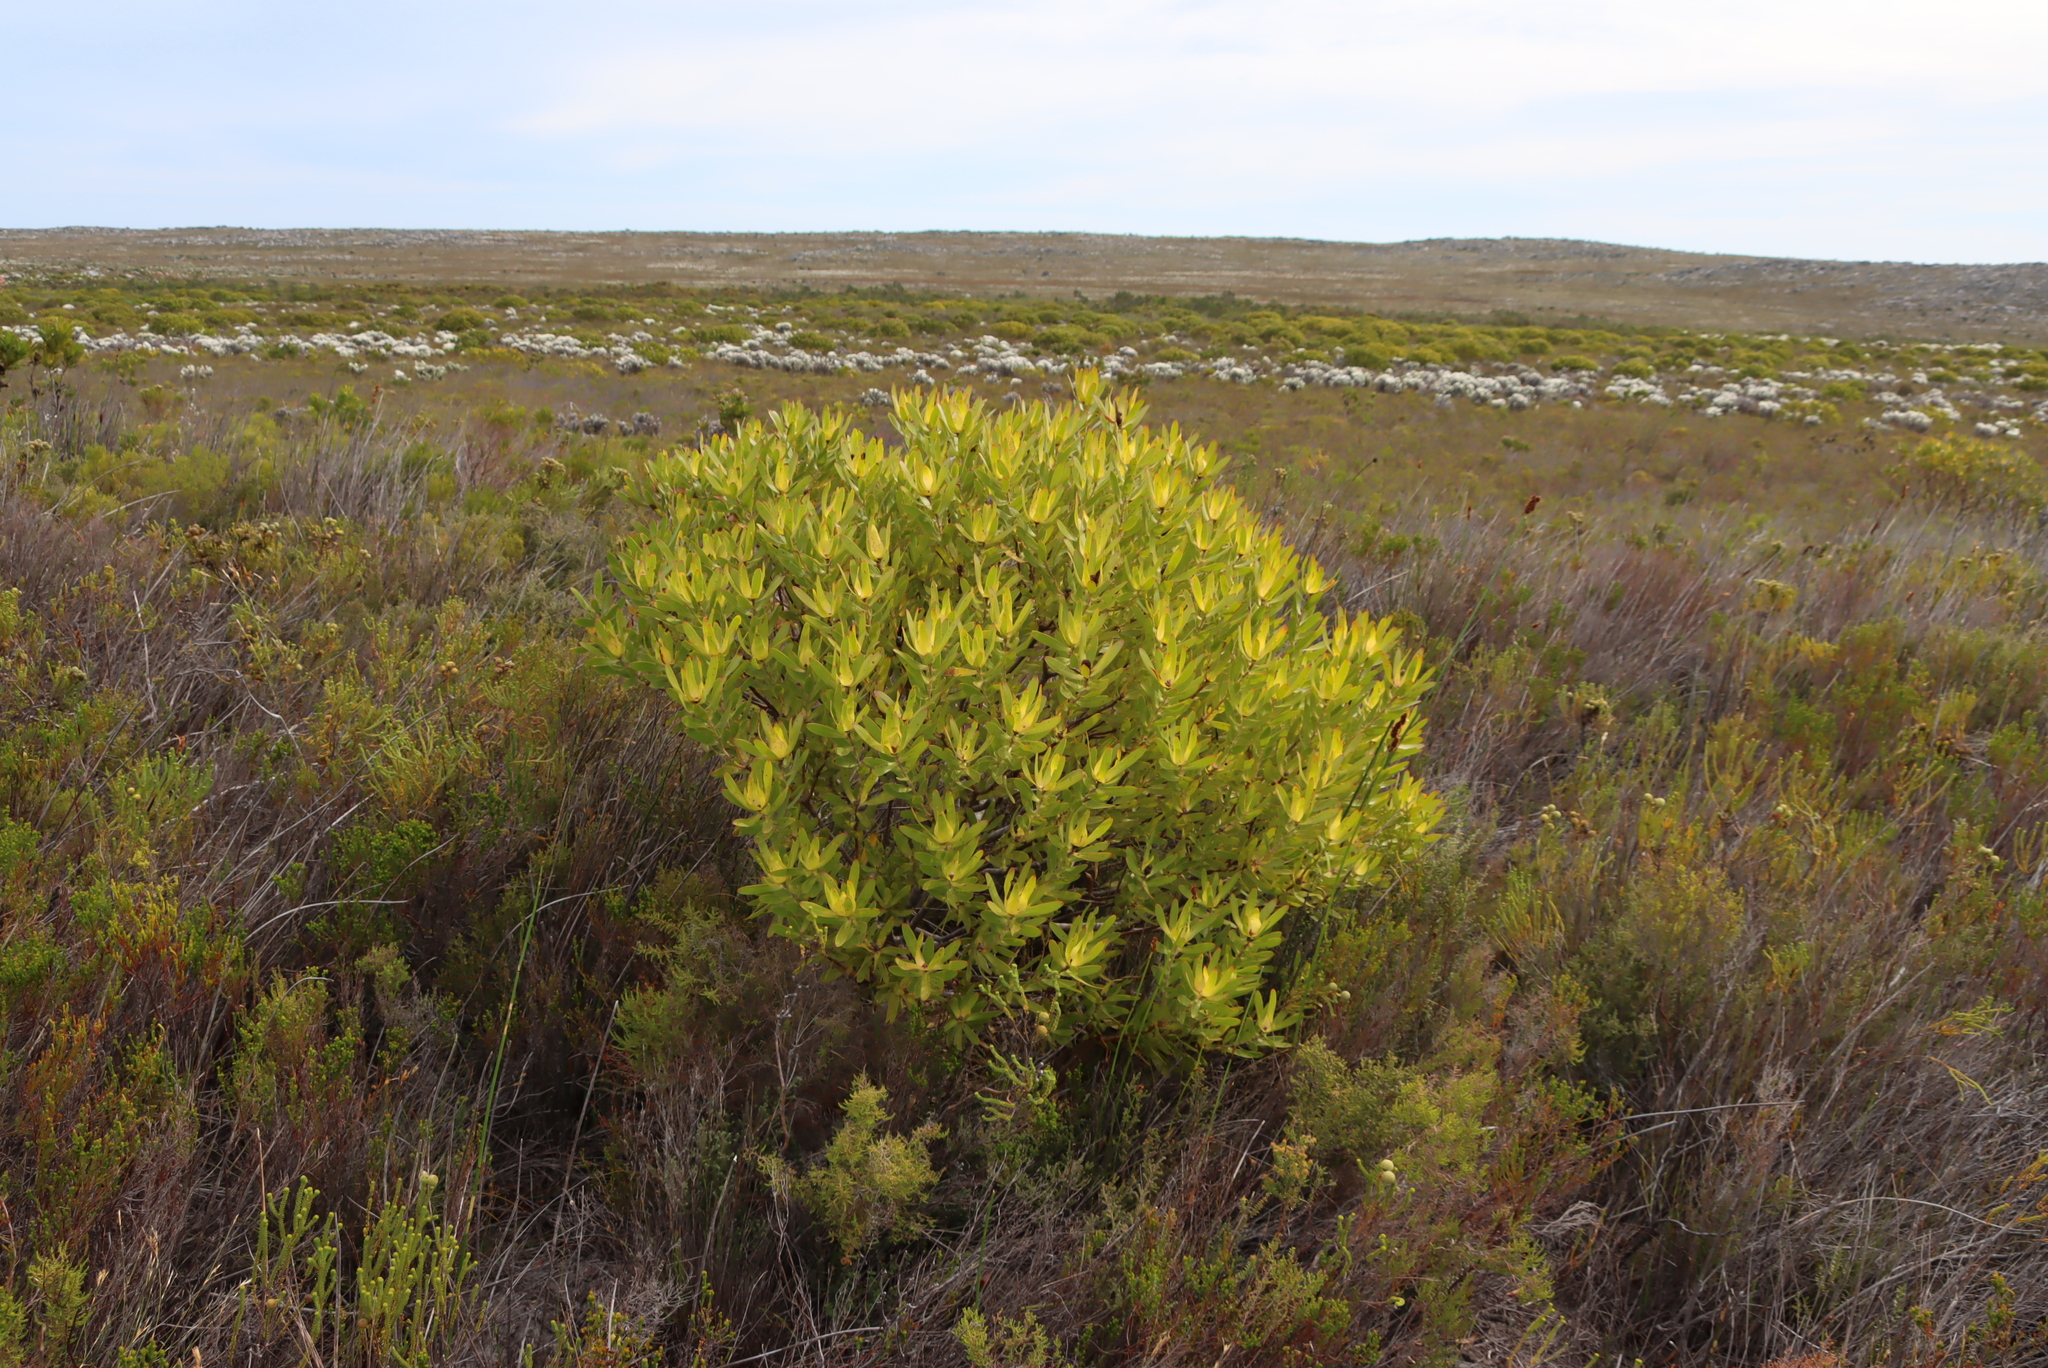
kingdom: Plantae
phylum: Tracheophyta
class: Magnoliopsida
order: Proteales
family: Proteaceae
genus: Leucadendron
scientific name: Leucadendron laureolum
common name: Golden sunshinebush
